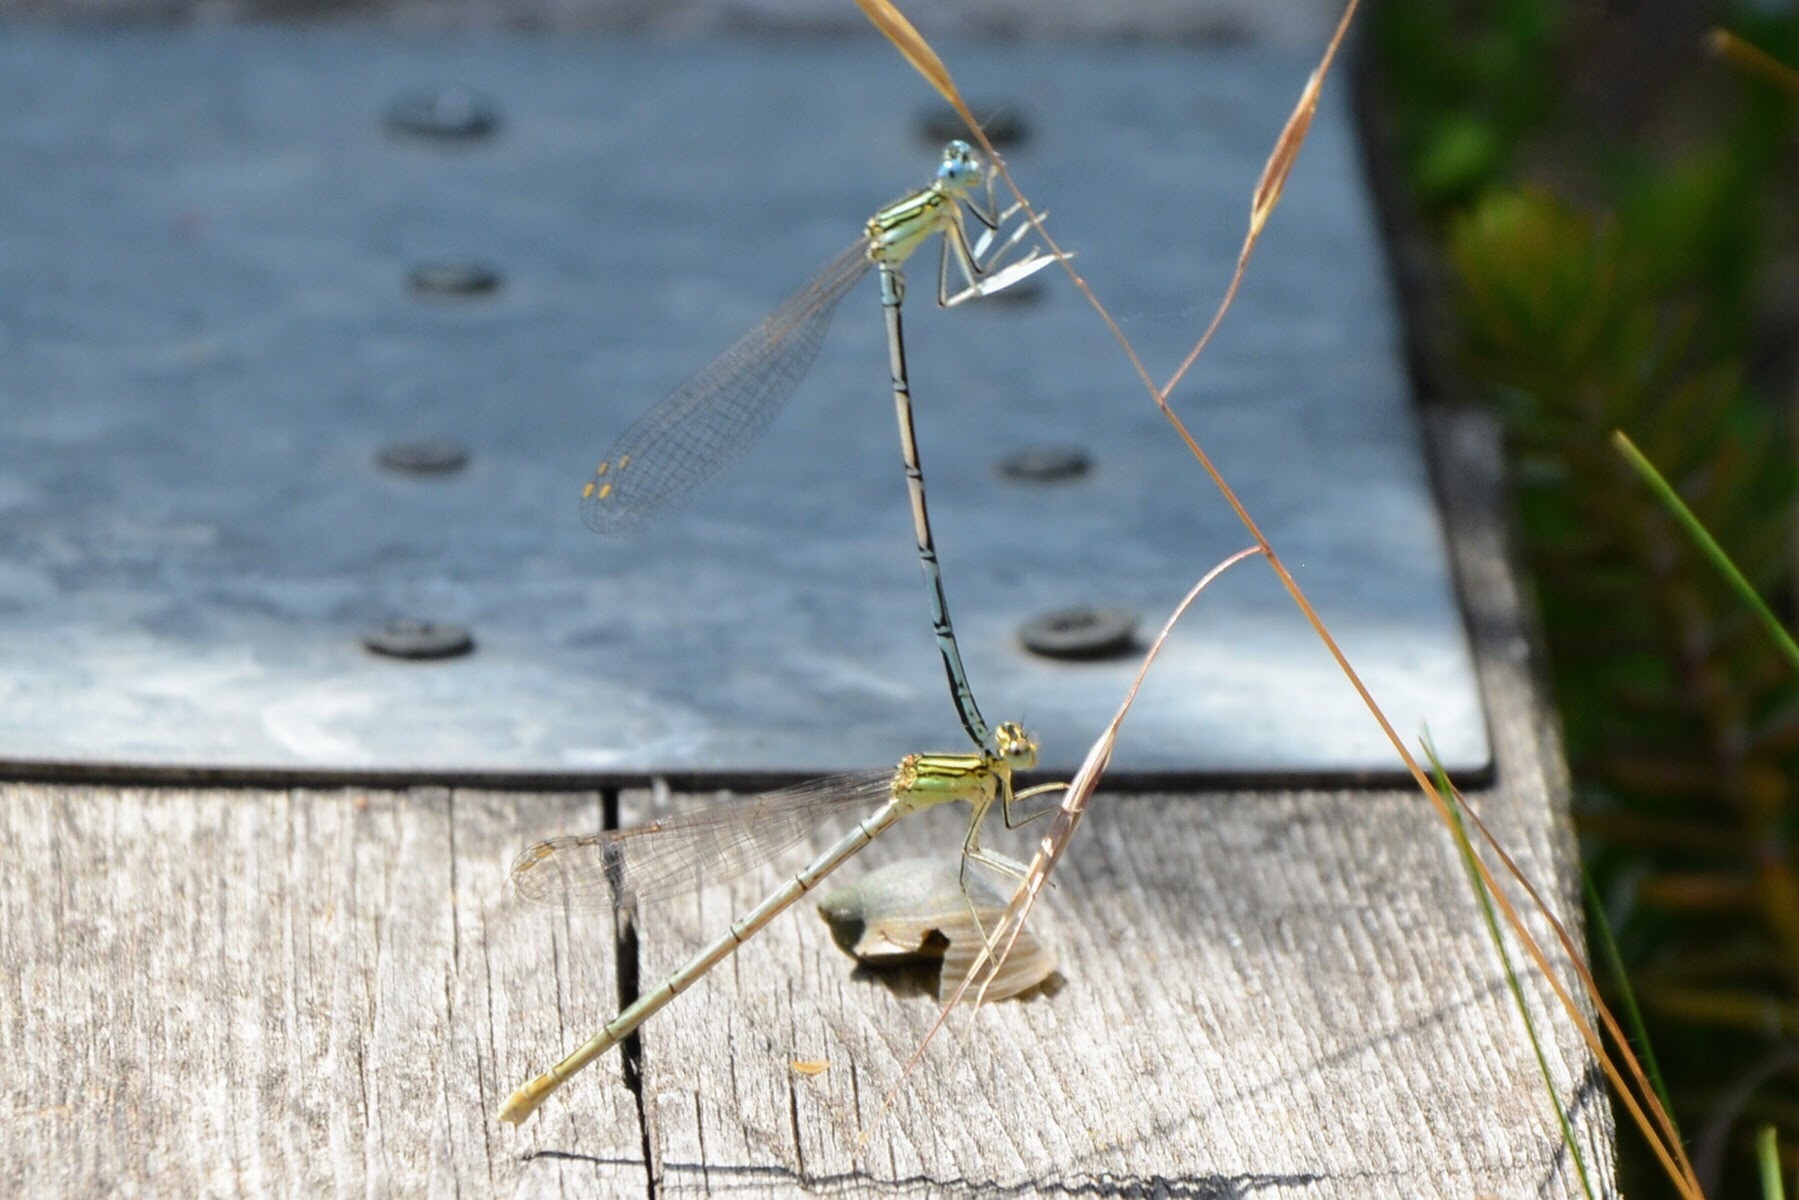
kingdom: Animalia
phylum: Arthropoda
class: Insecta
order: Odonata
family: Platycnemididae
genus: Platycnemis
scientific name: Platycnemis pennipes
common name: White-legged damselfly
